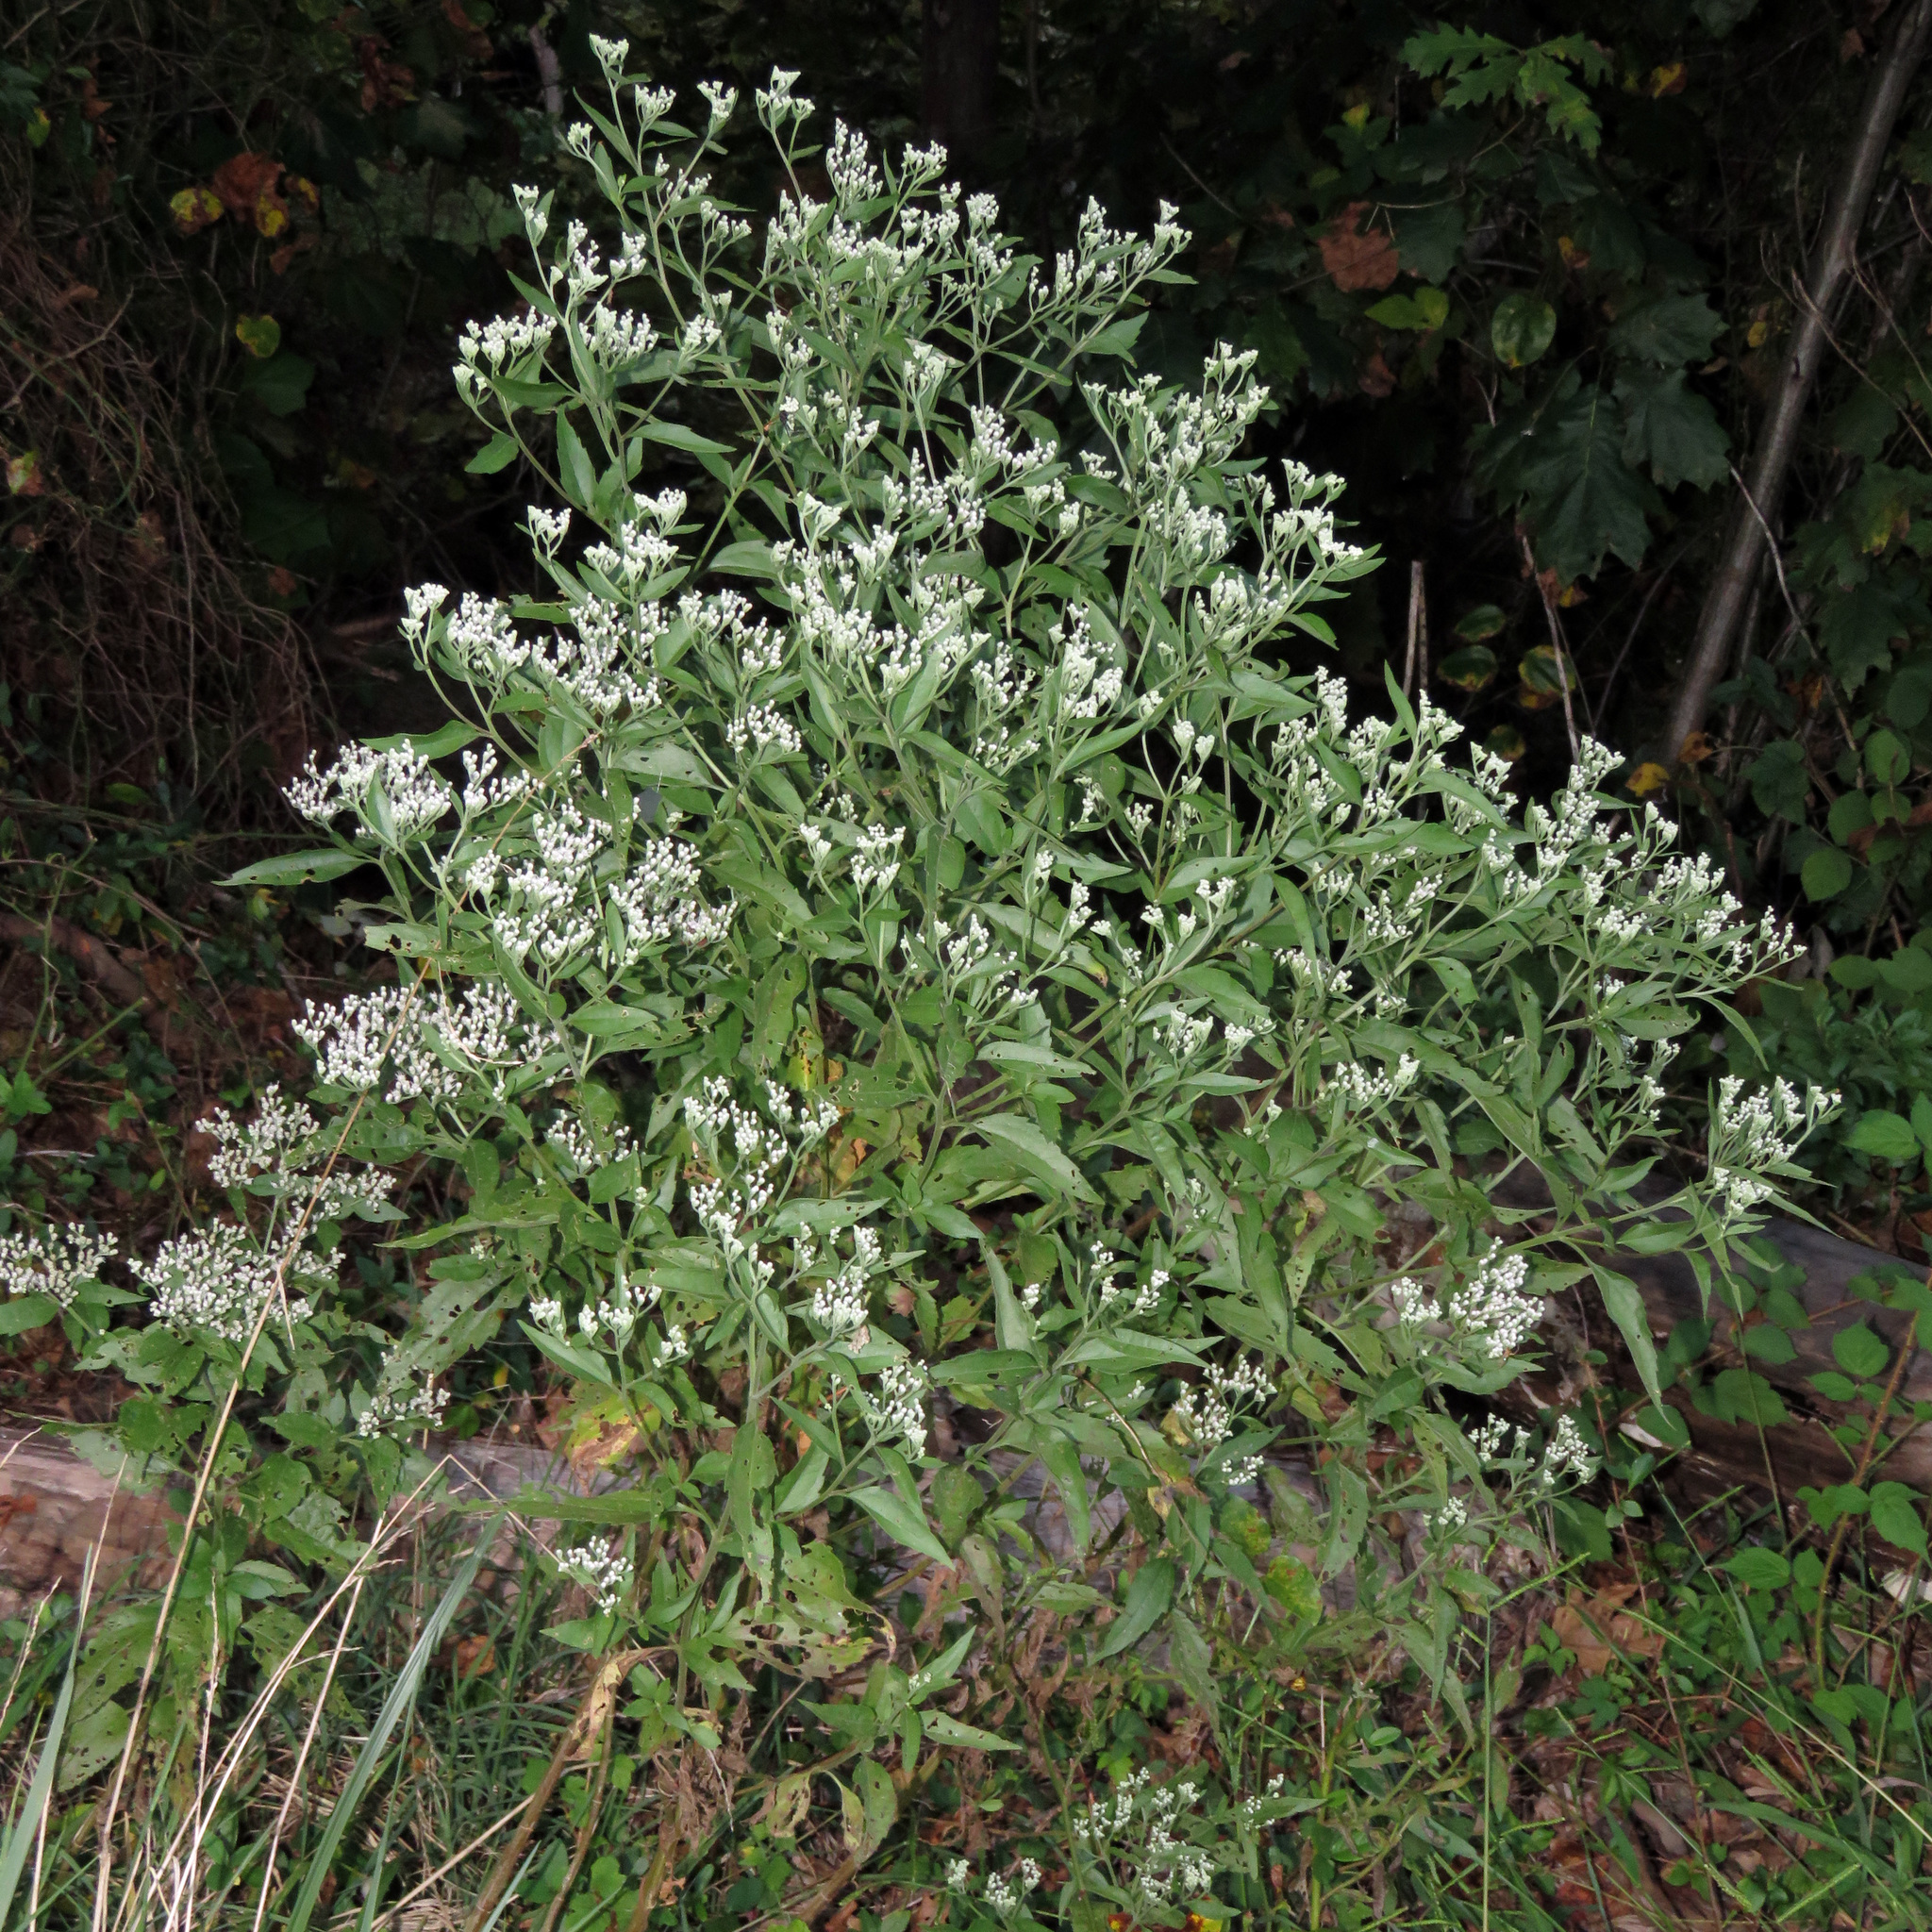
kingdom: Plantae
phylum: Tracheophyta
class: Magnoliopsida
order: Asterales
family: Asteraceae
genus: Eupatorium
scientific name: Eupatorium serotinum
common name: Late boneset
